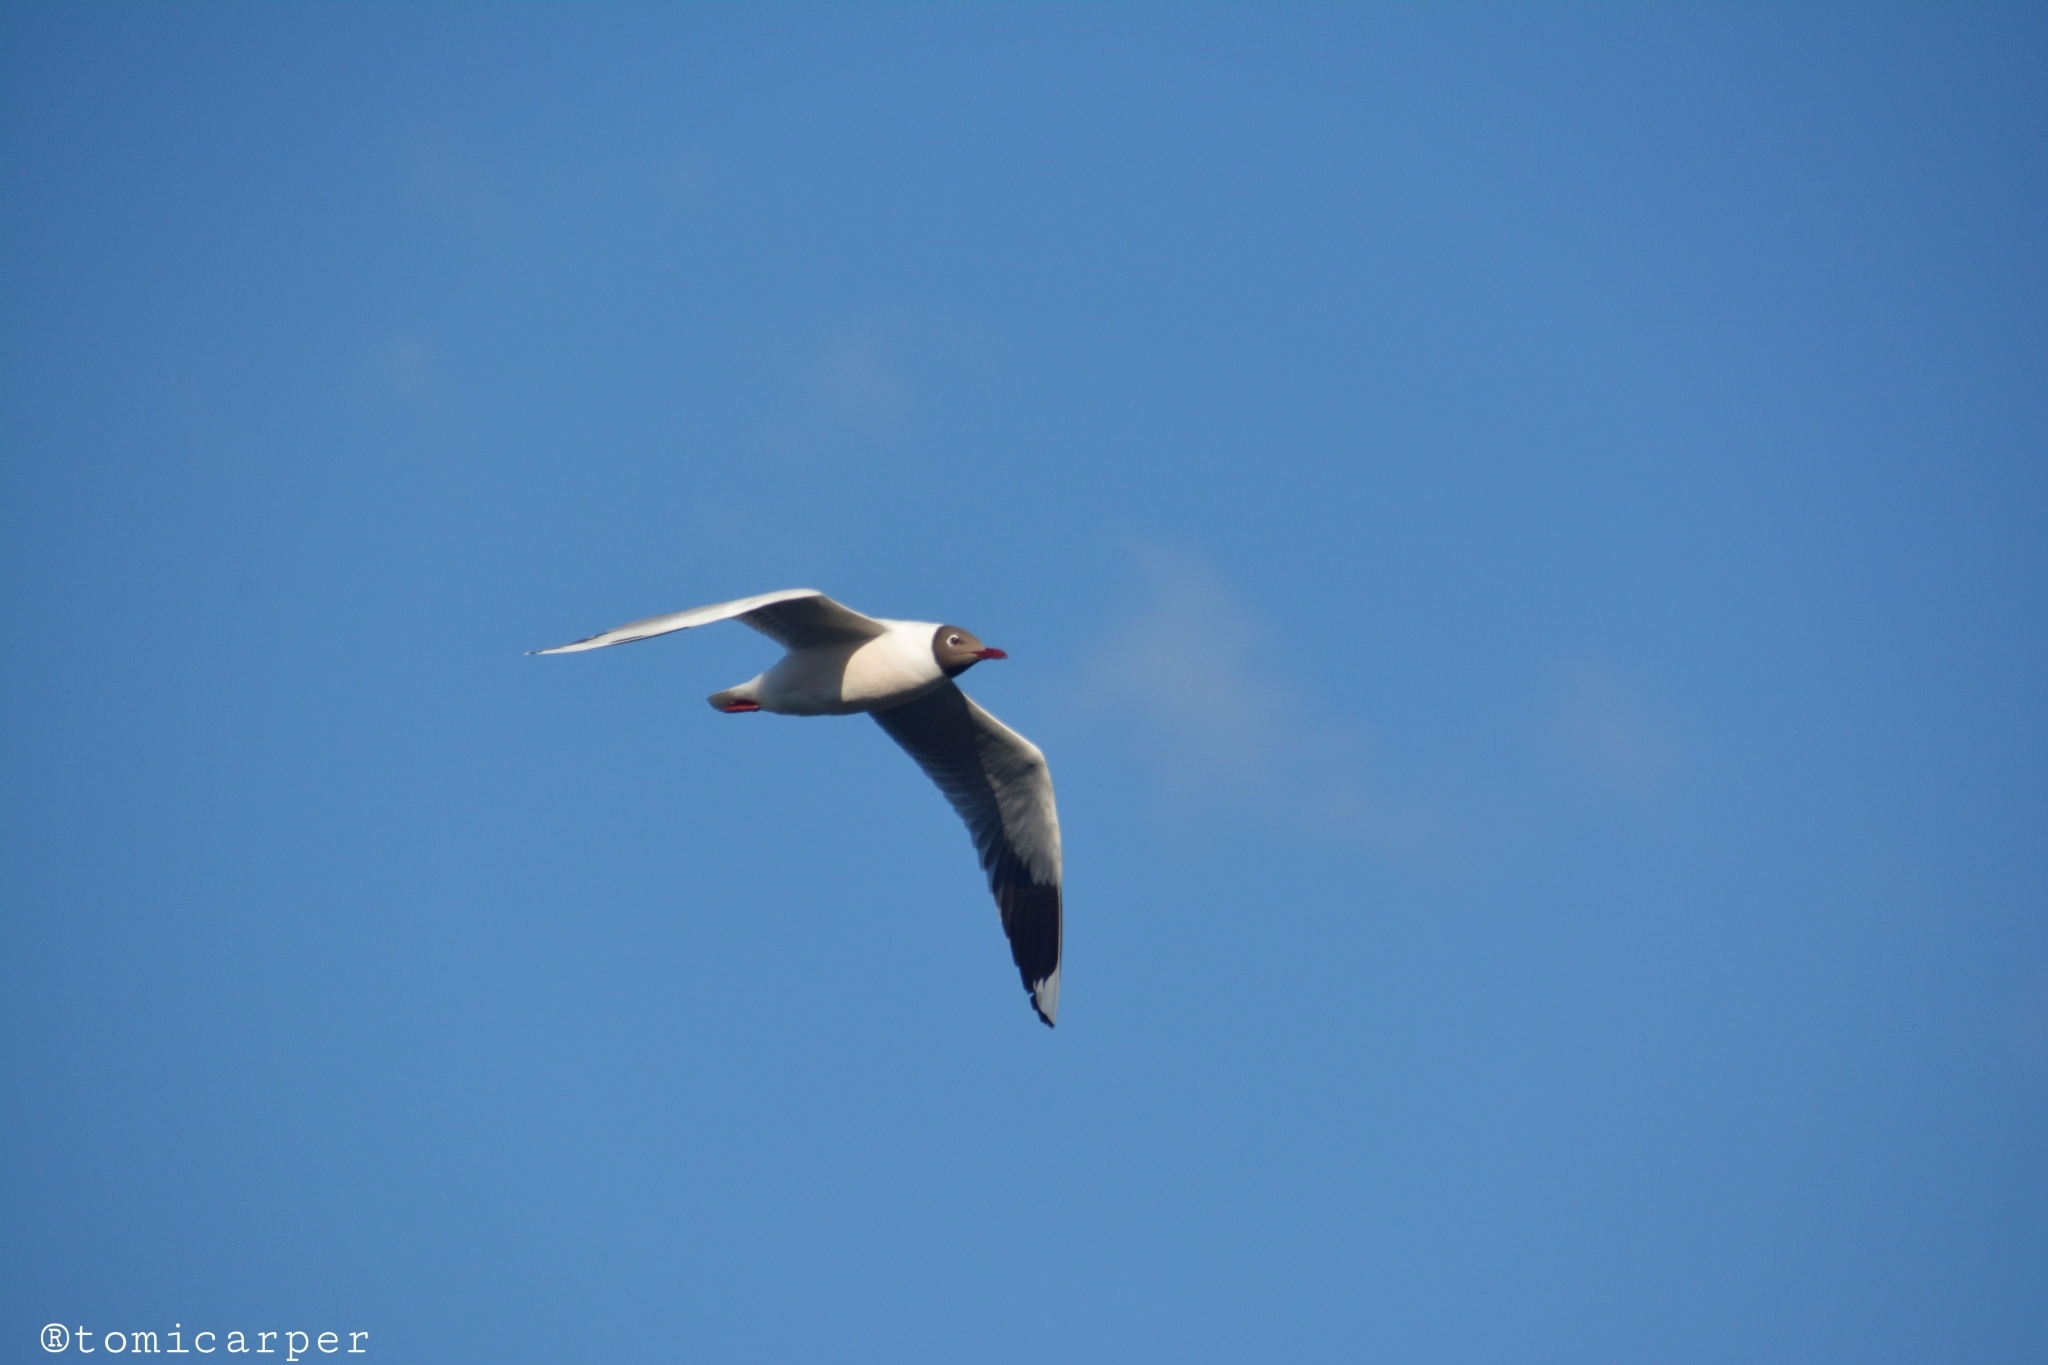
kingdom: Animalia
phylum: Chordata
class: Aves
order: Charadriiformes
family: Laridae
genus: Chroicocephalus
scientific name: Chroicocephalus maculipennis
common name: Brown-hooded gull
